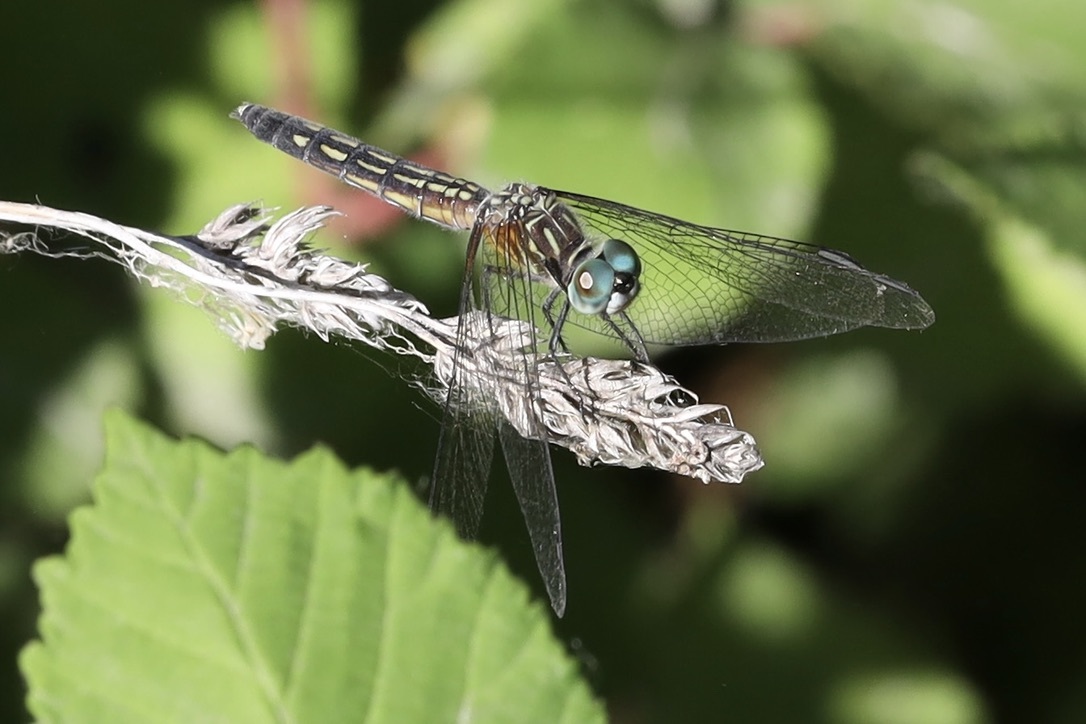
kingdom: Animalia
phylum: Arthropoda
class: Insecta
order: Odonata
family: Libellulidae
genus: Pachydiplax
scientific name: Pachydiplax longipennis
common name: Blue dasher
